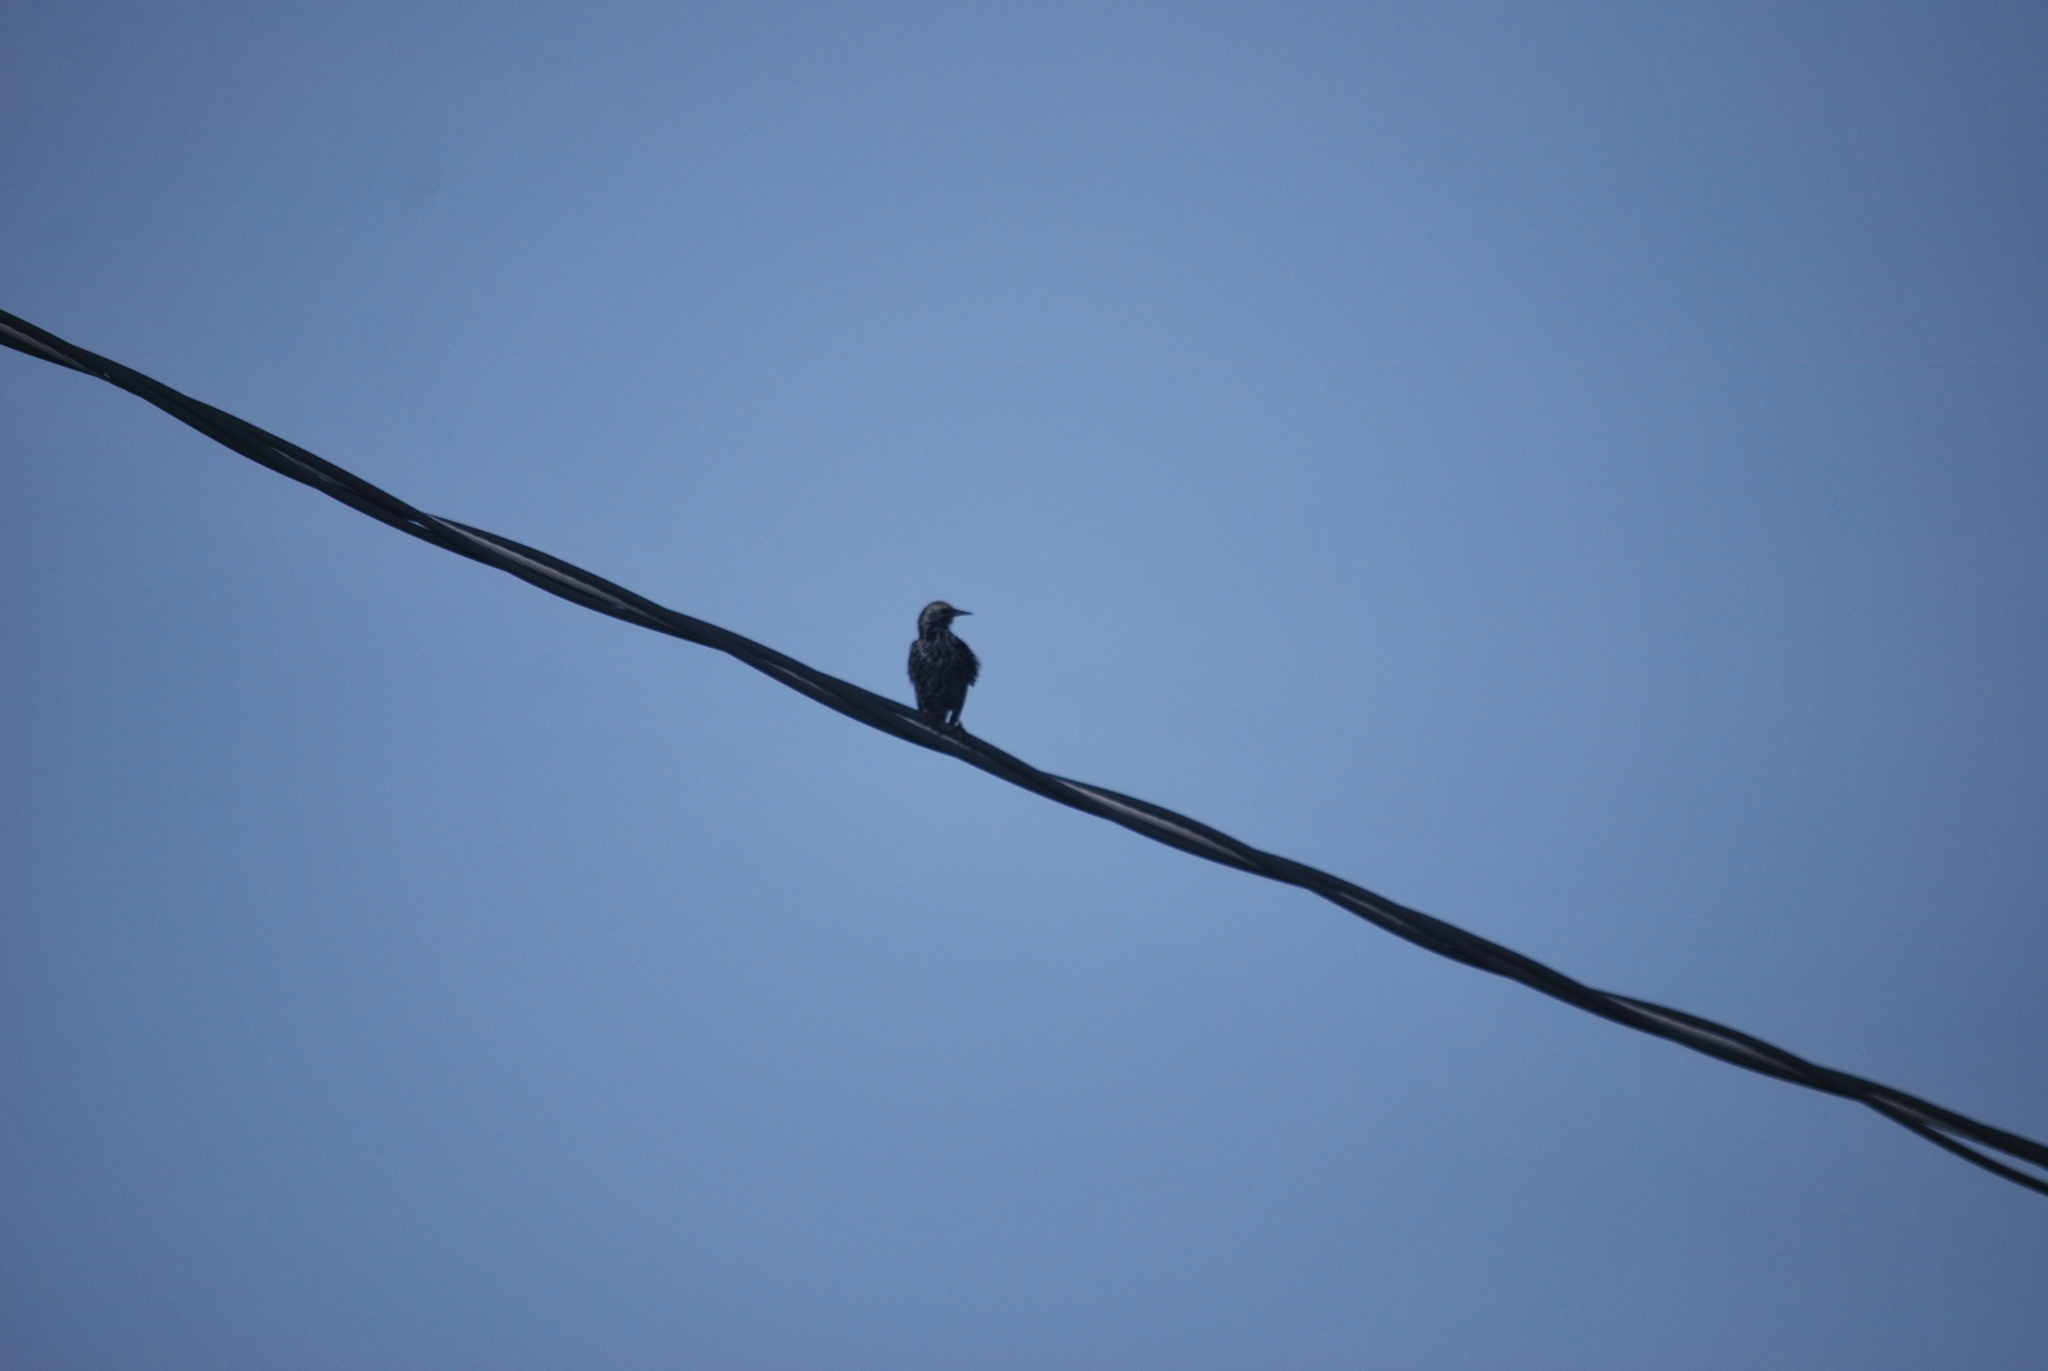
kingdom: Animalia
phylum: Chordata
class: Aves
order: Passeriformes
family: Sturnidae
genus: Sturnus
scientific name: Sturnus vulgaris
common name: Common starling
